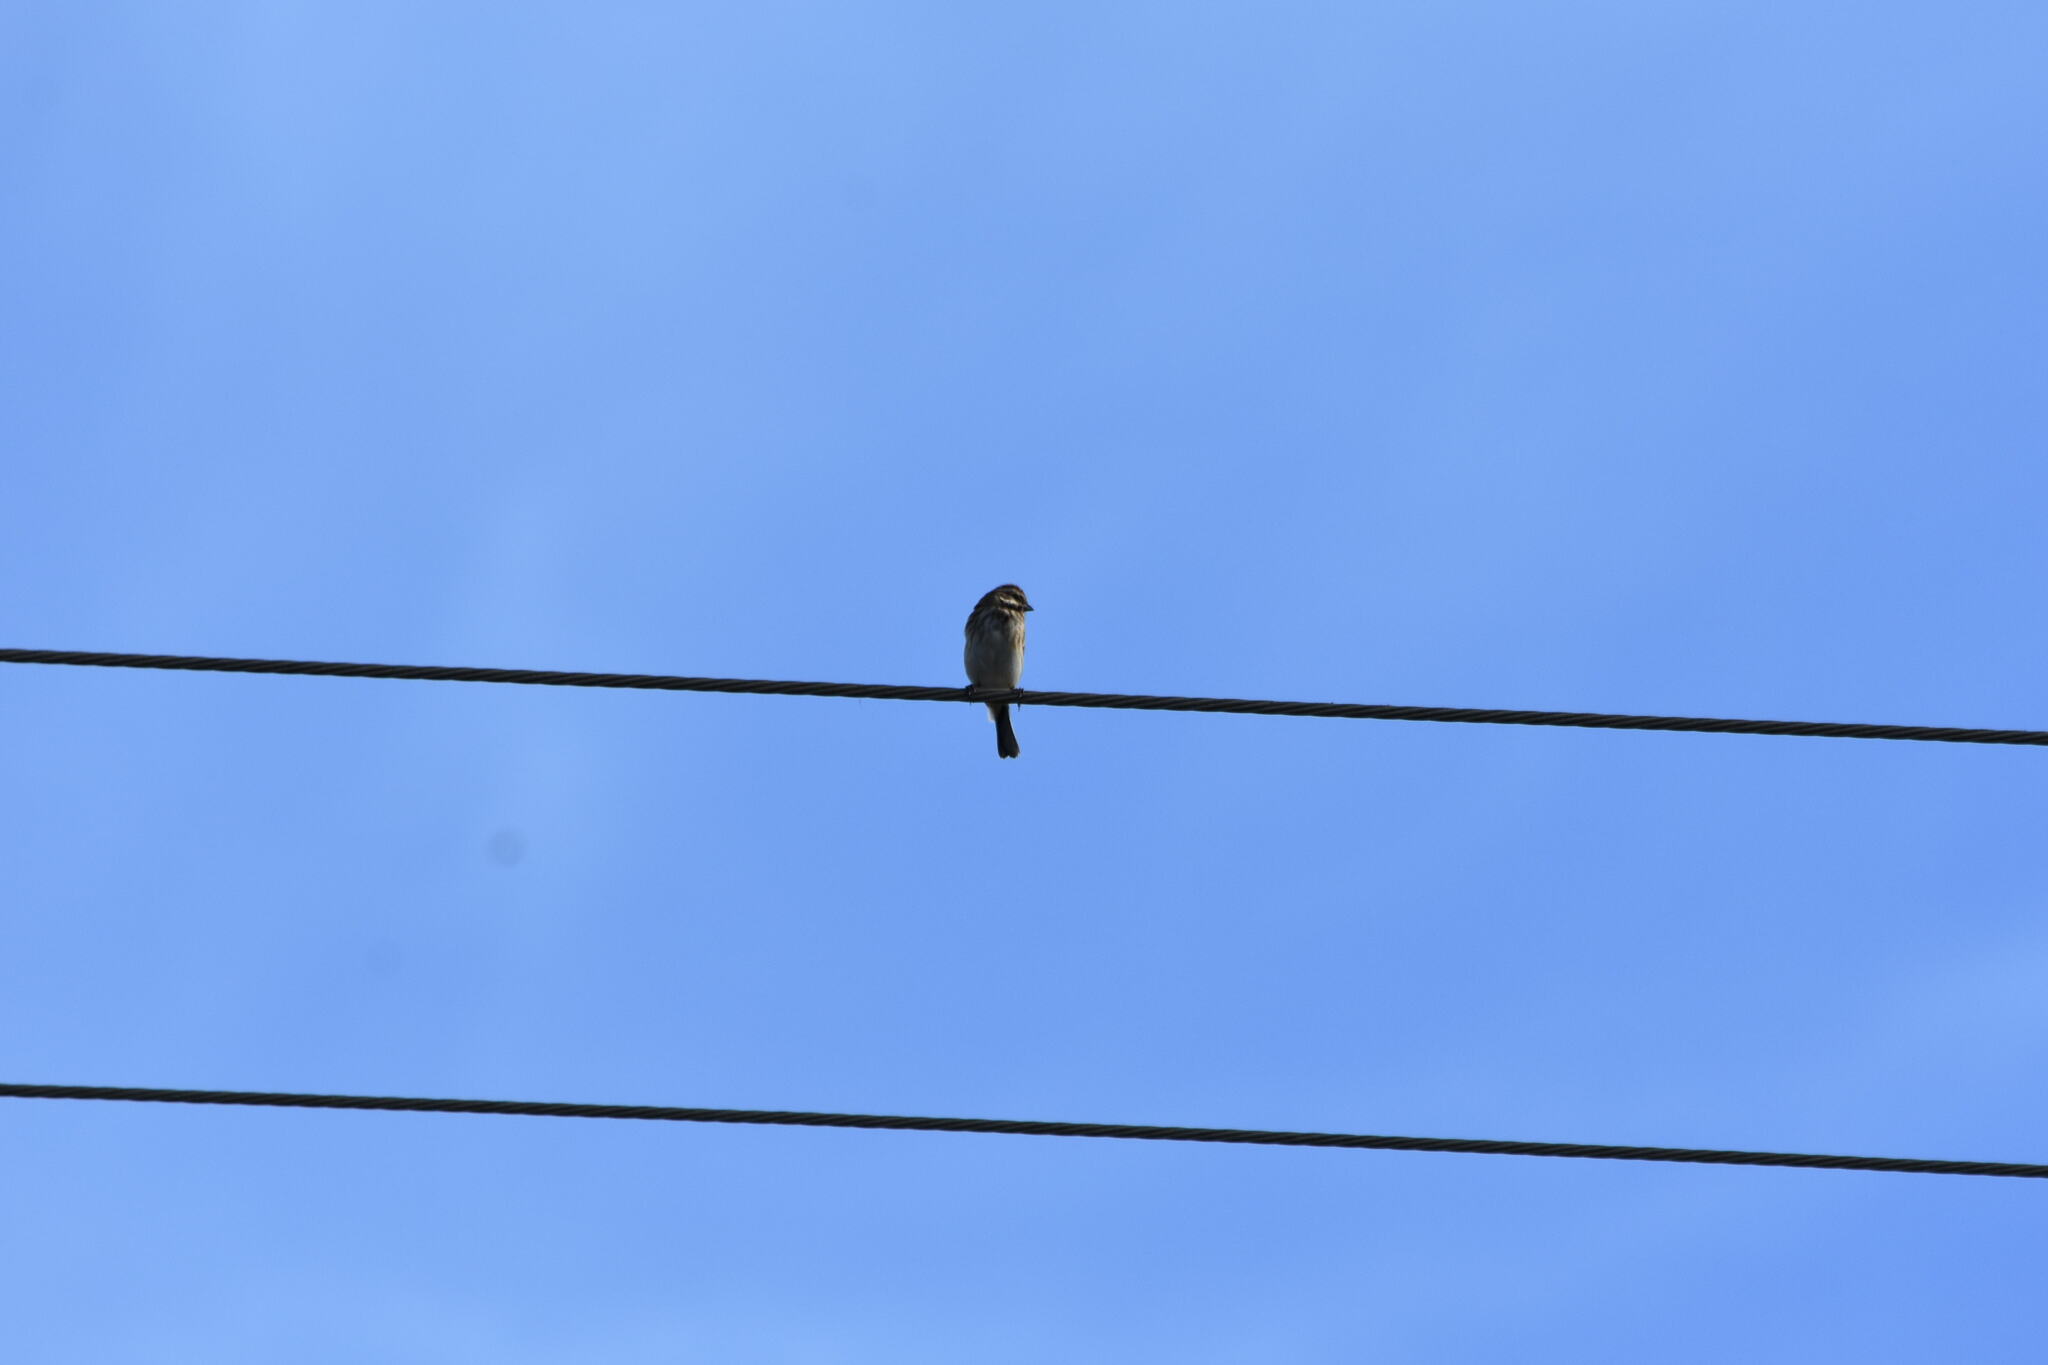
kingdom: Animalia
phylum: Chordata
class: Aves
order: Passeriformes
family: Emberizidae
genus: Emberiza
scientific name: Emberiza schoeniclus
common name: Reed bunting
